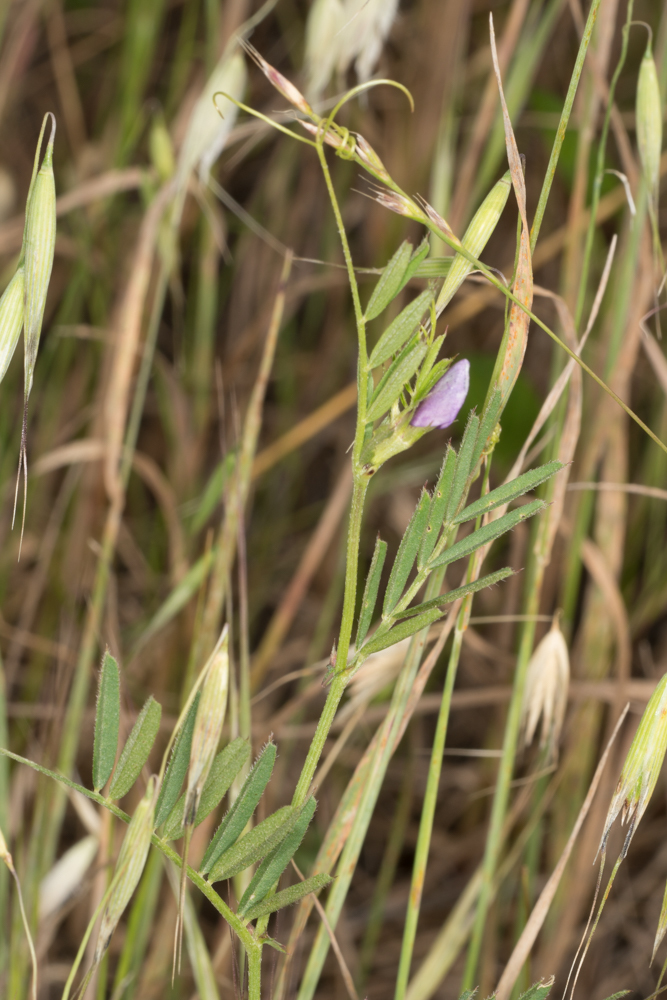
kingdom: Plantae
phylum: Tracheophyta
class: Magnoliopsida
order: Fabales
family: Fabaceae
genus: Vicia
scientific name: Vicia sativa
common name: Garden vetch
